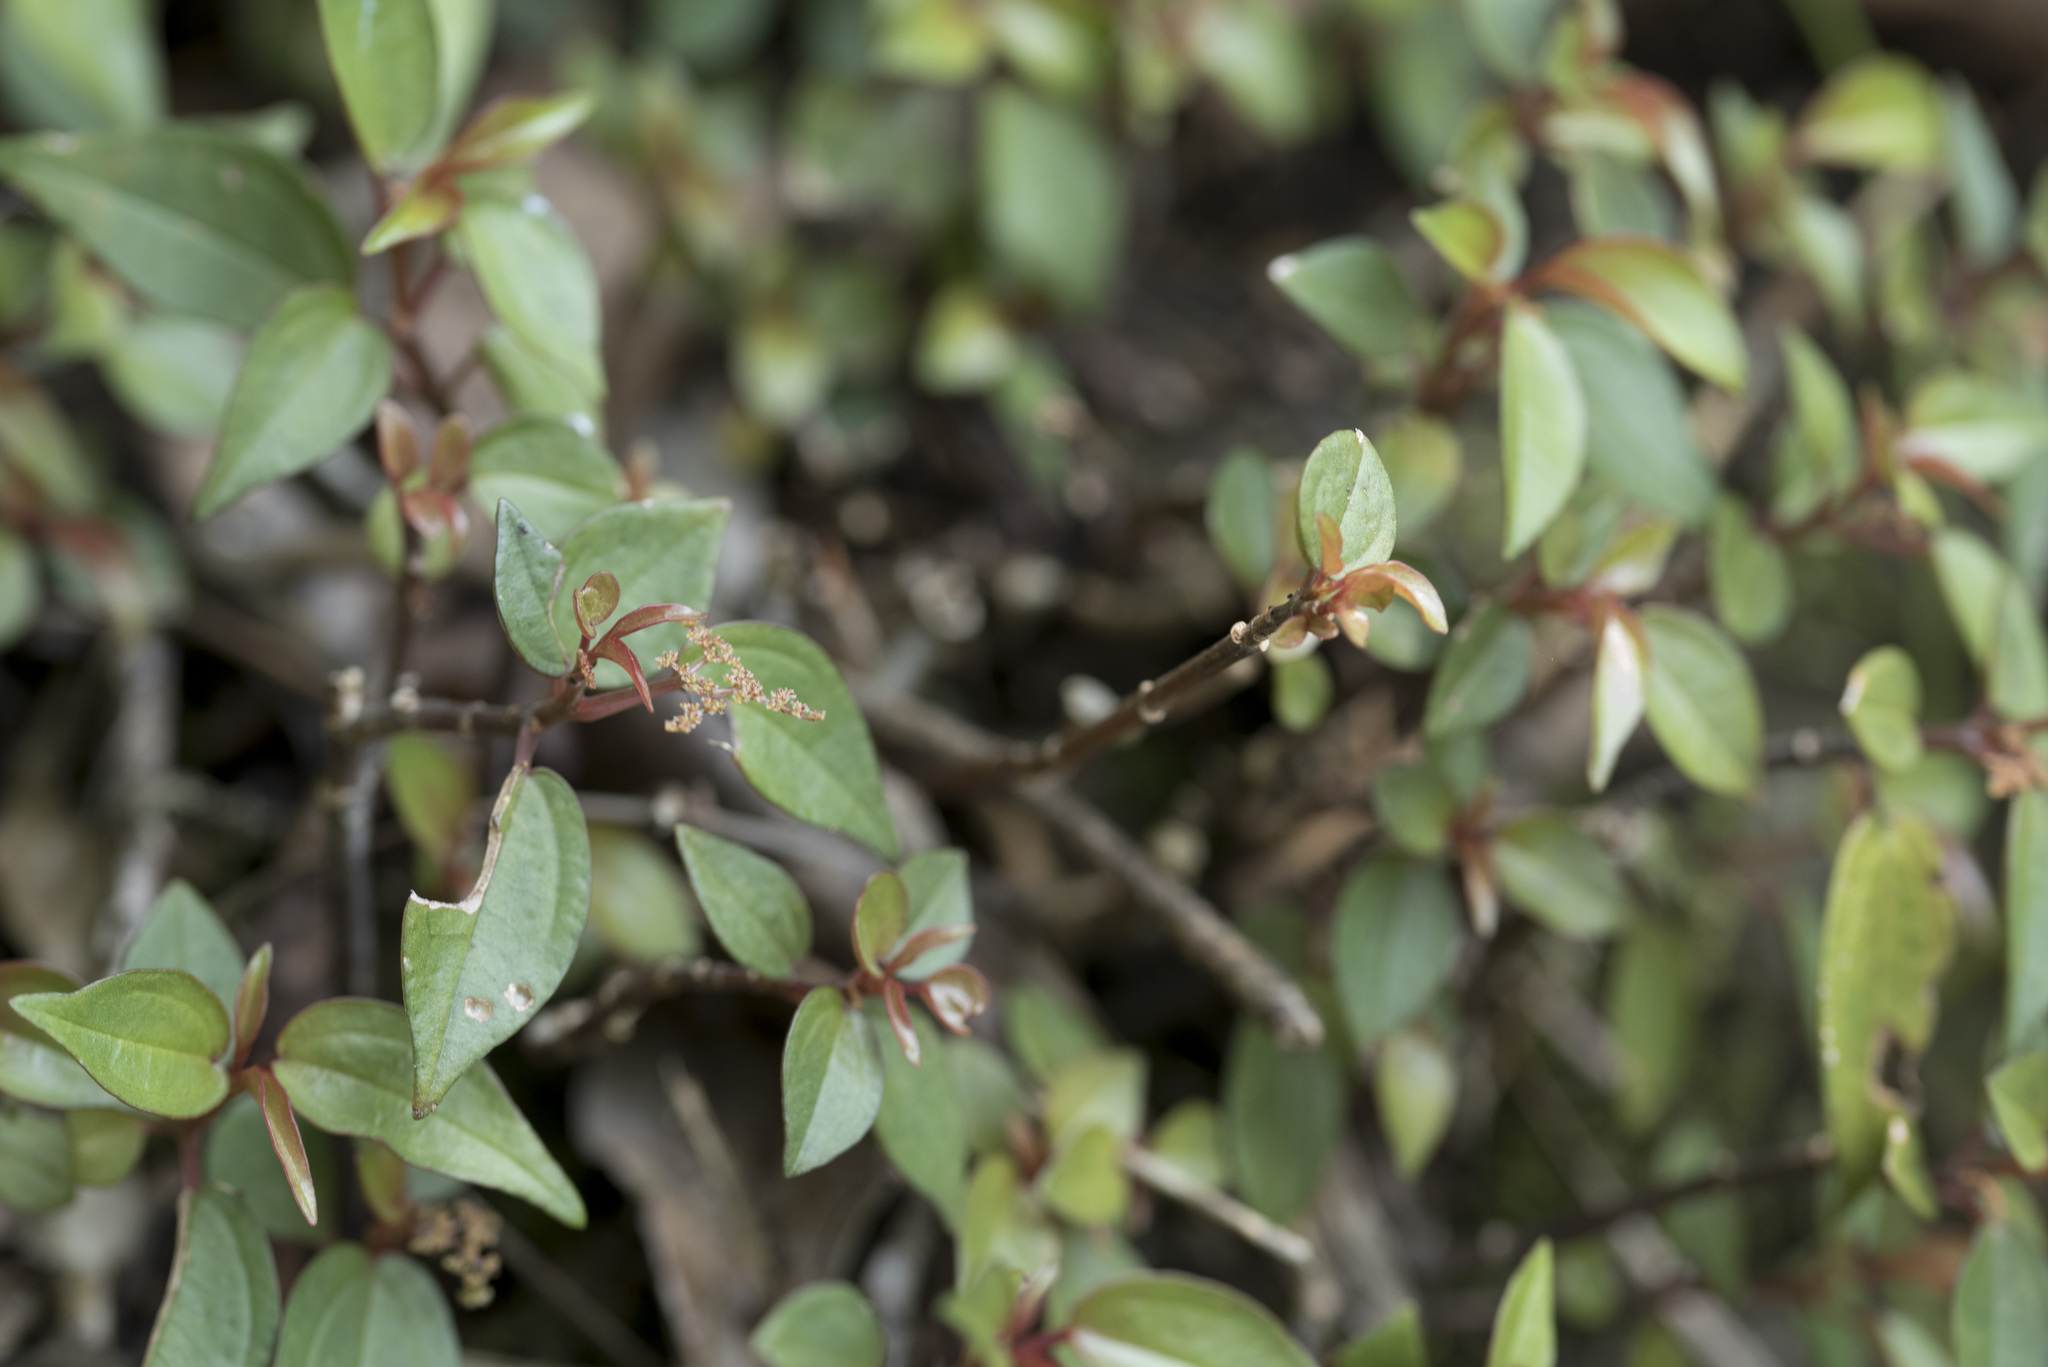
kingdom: Plantae
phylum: Tracheophyta
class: Magnoliopsida
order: Rosales
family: Urticaceae
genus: Pilea
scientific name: Pilea plataniflora
